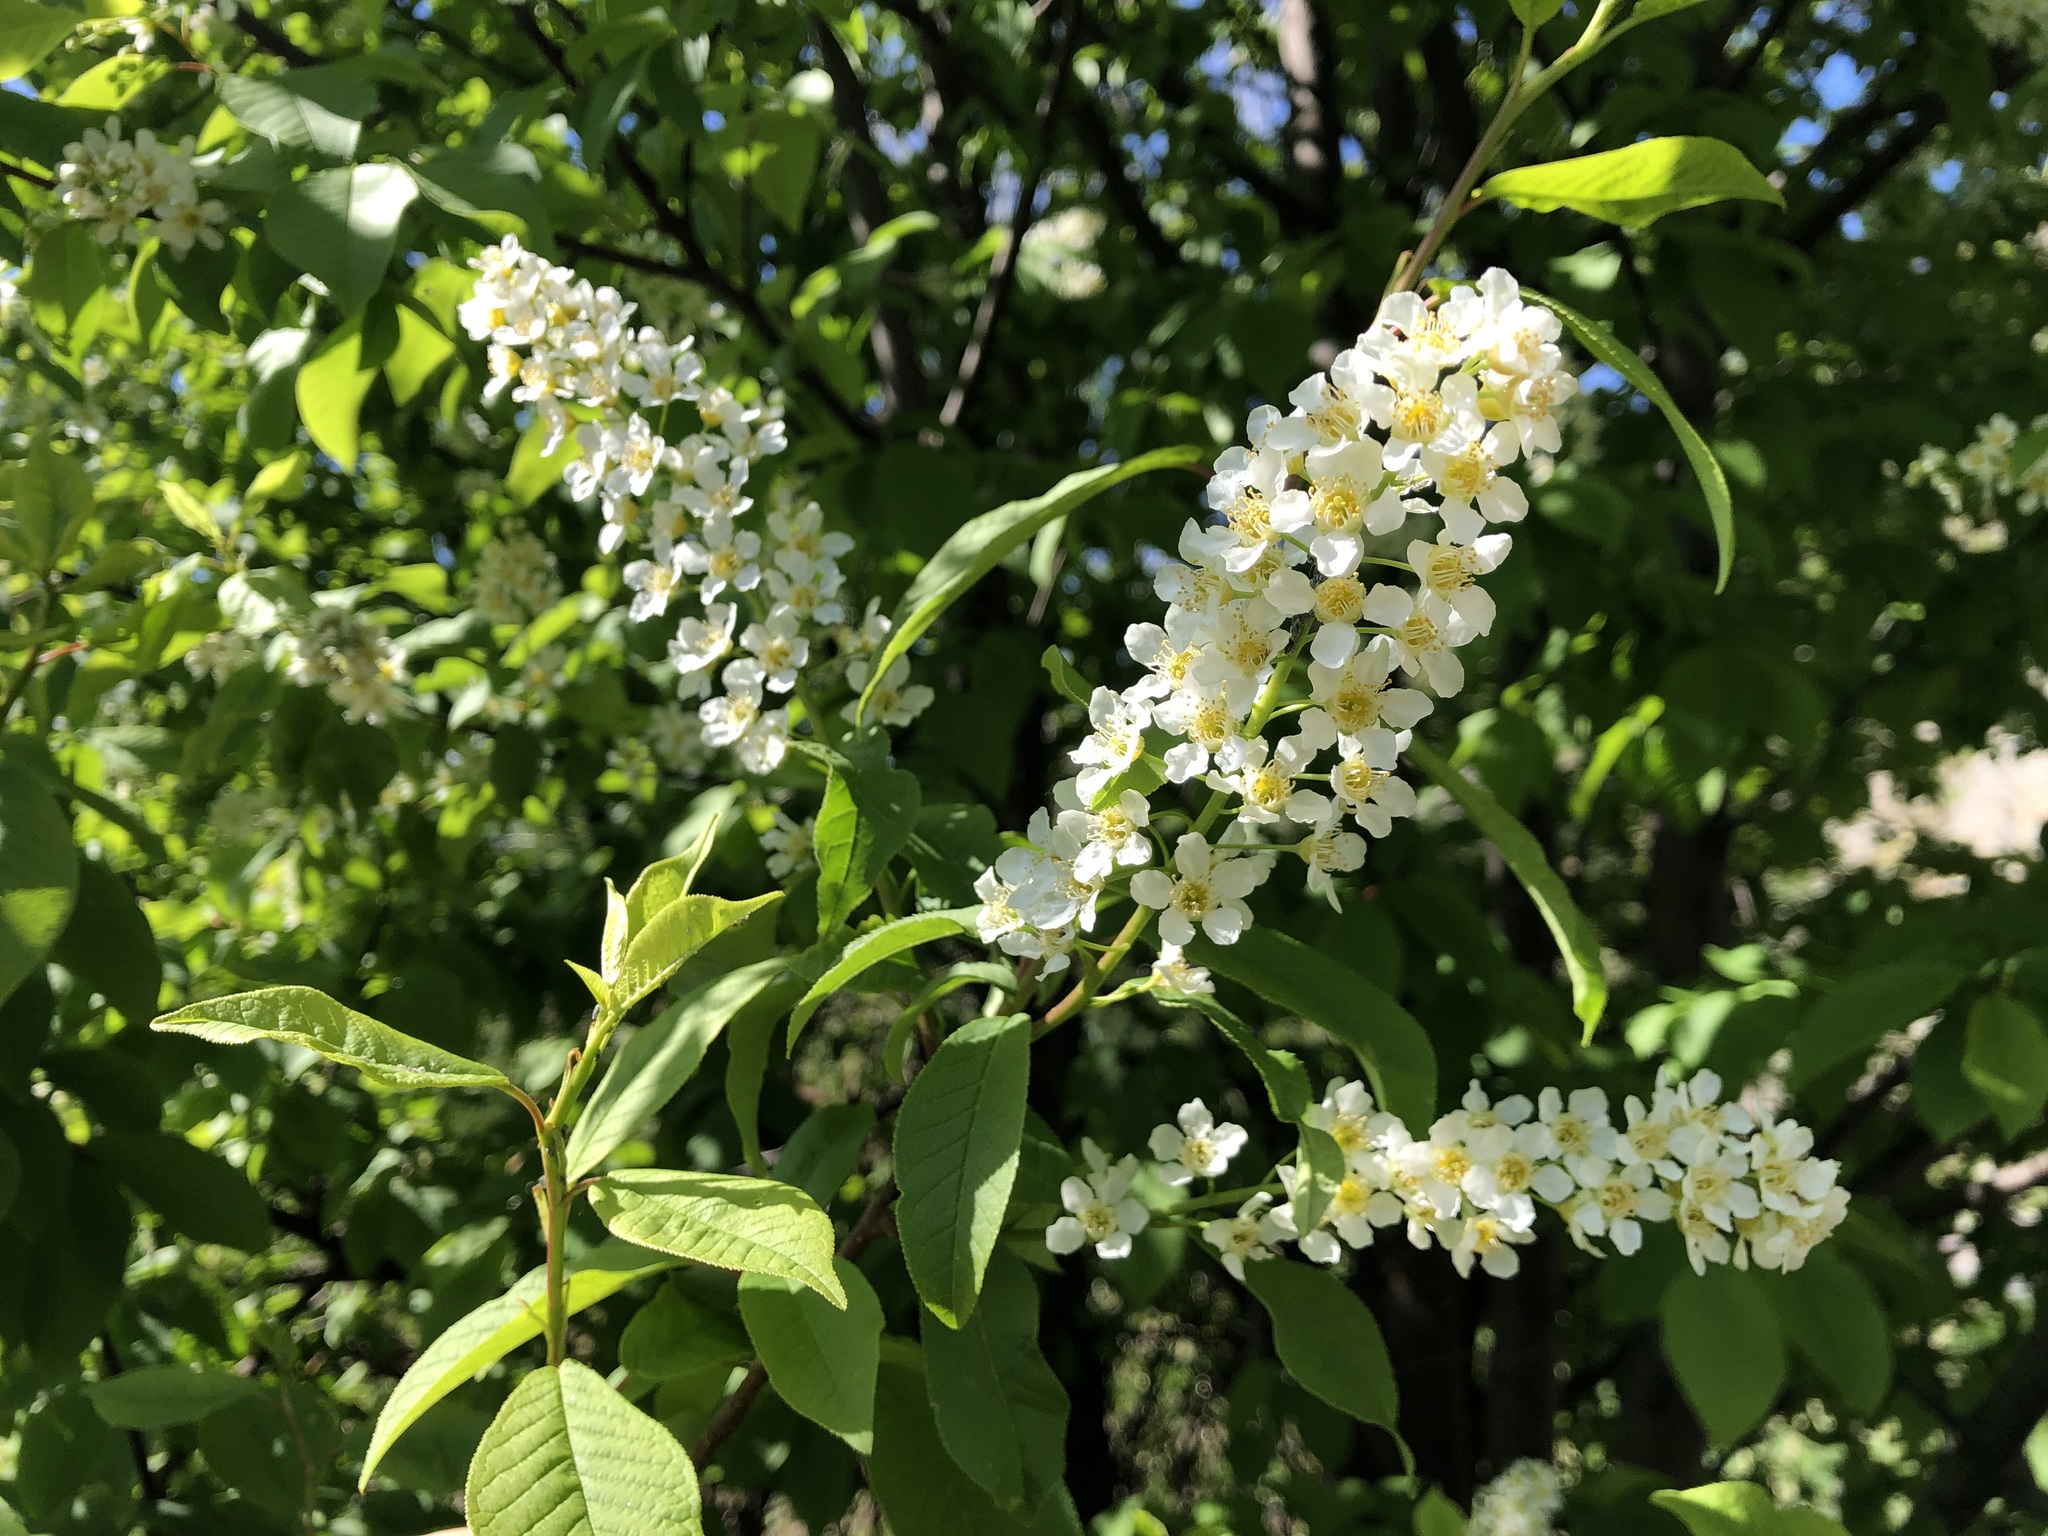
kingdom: Plantae
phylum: Tracheophyta
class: Magnoliopsida
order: Rosales
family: Rosaceae
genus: Prunus
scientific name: Prunus padus
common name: Bird cherry
